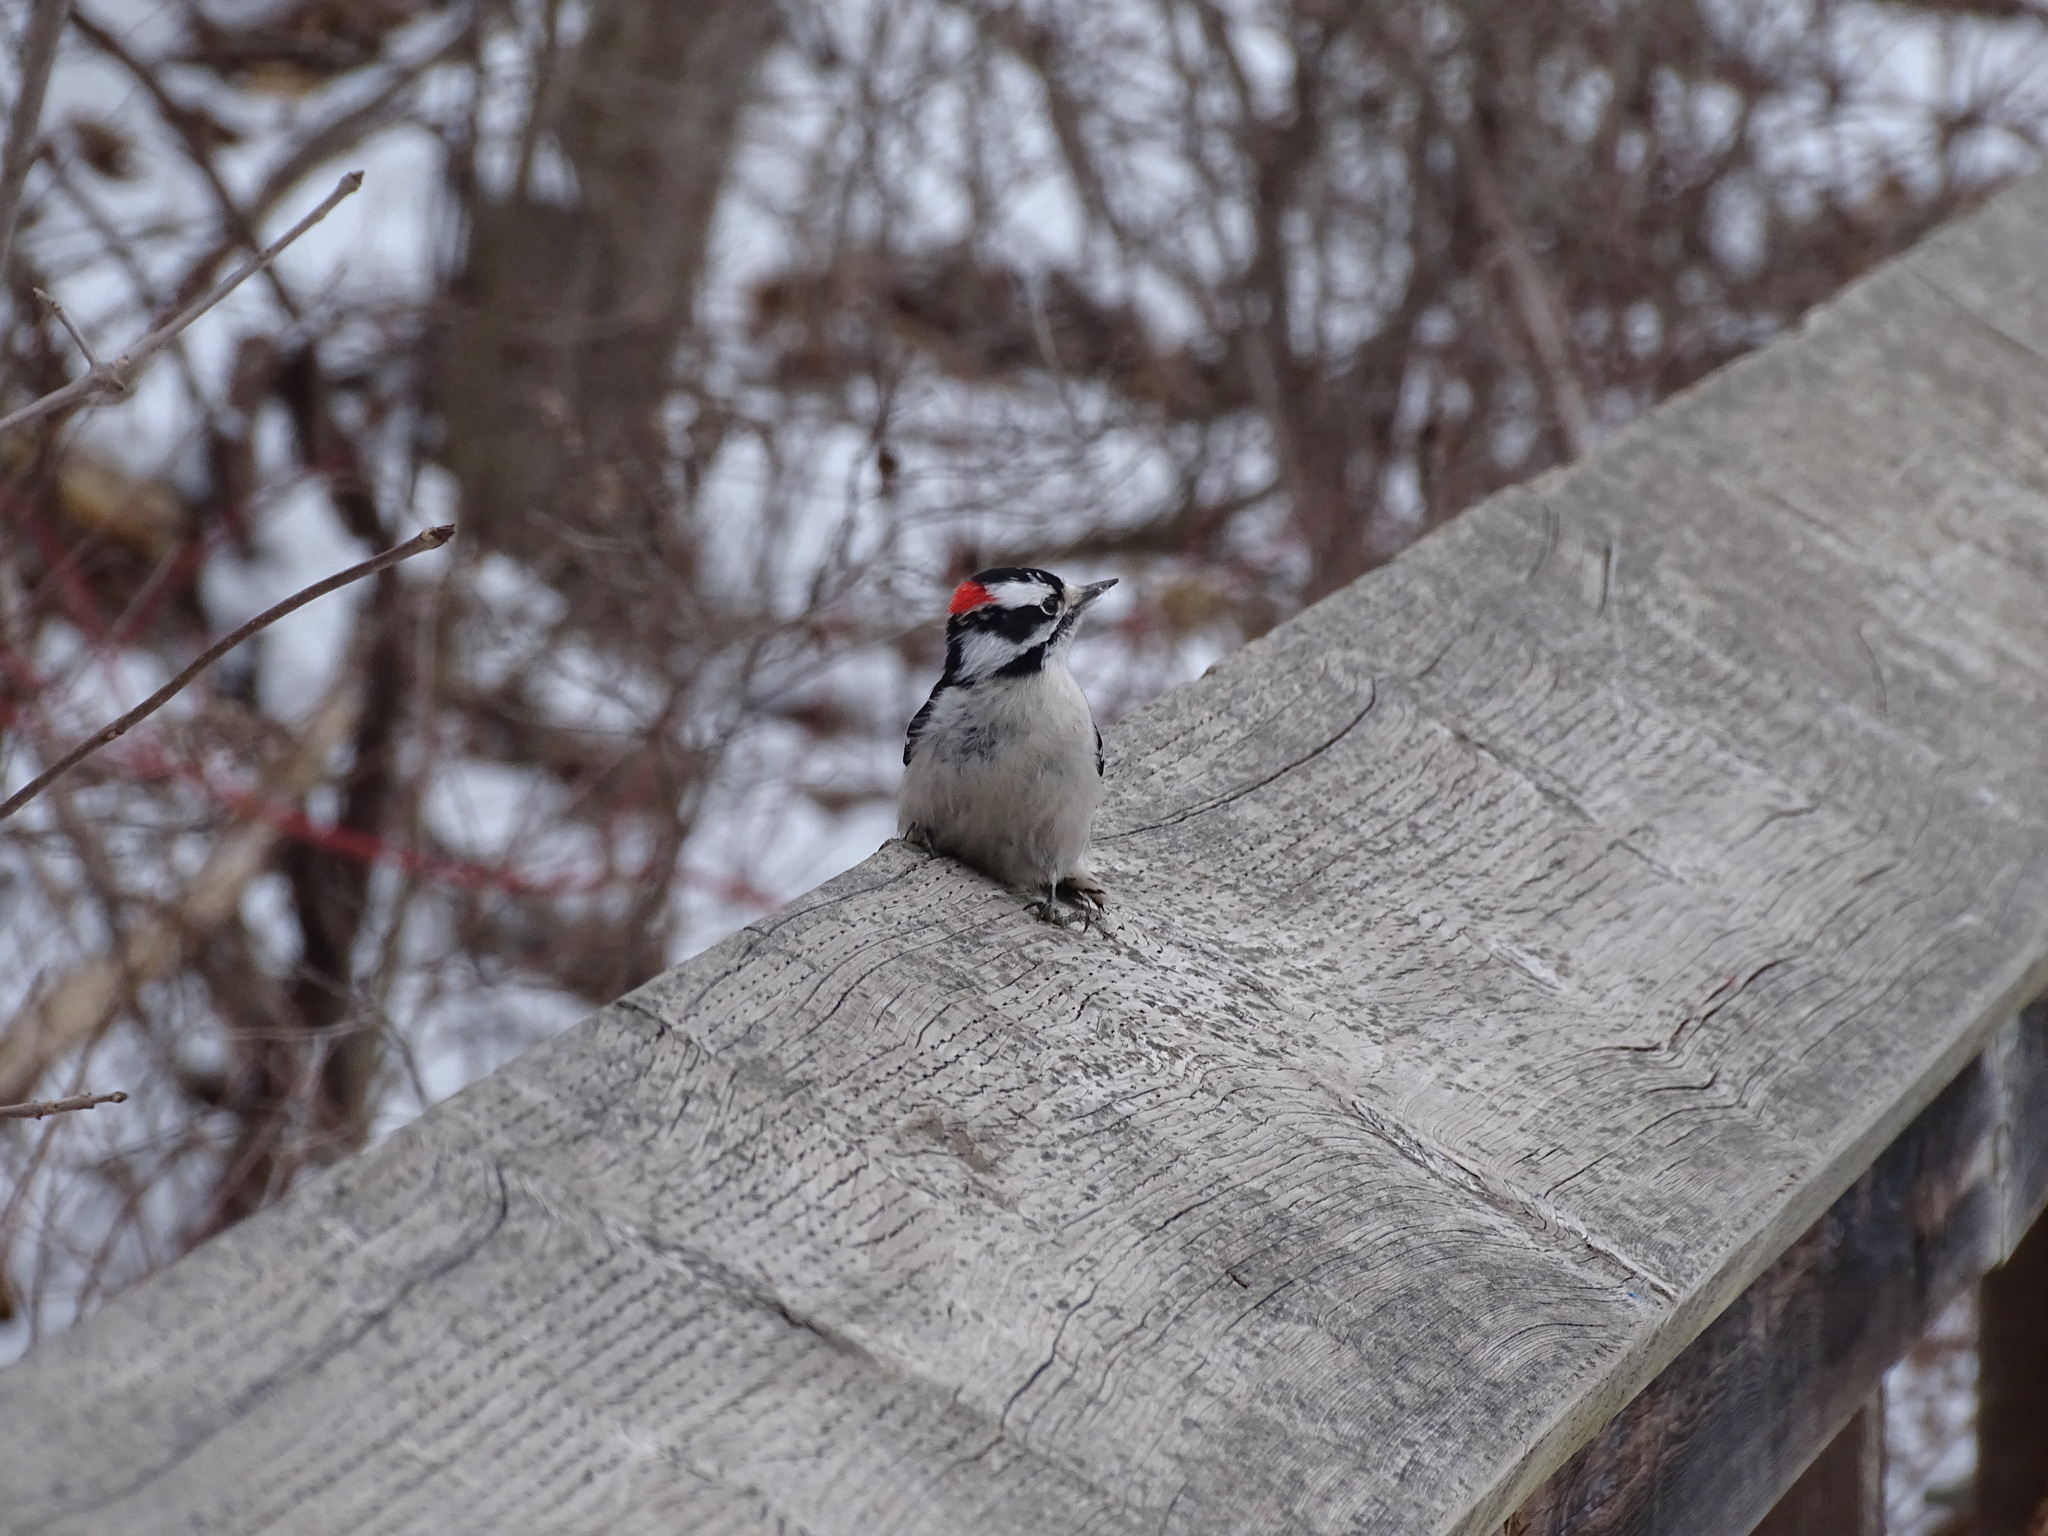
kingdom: Animalia
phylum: Chordata
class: Aves
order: Piciformes
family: Picidae
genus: Dryobates
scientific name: Dryobates pubescens
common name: Downy woodpecker
